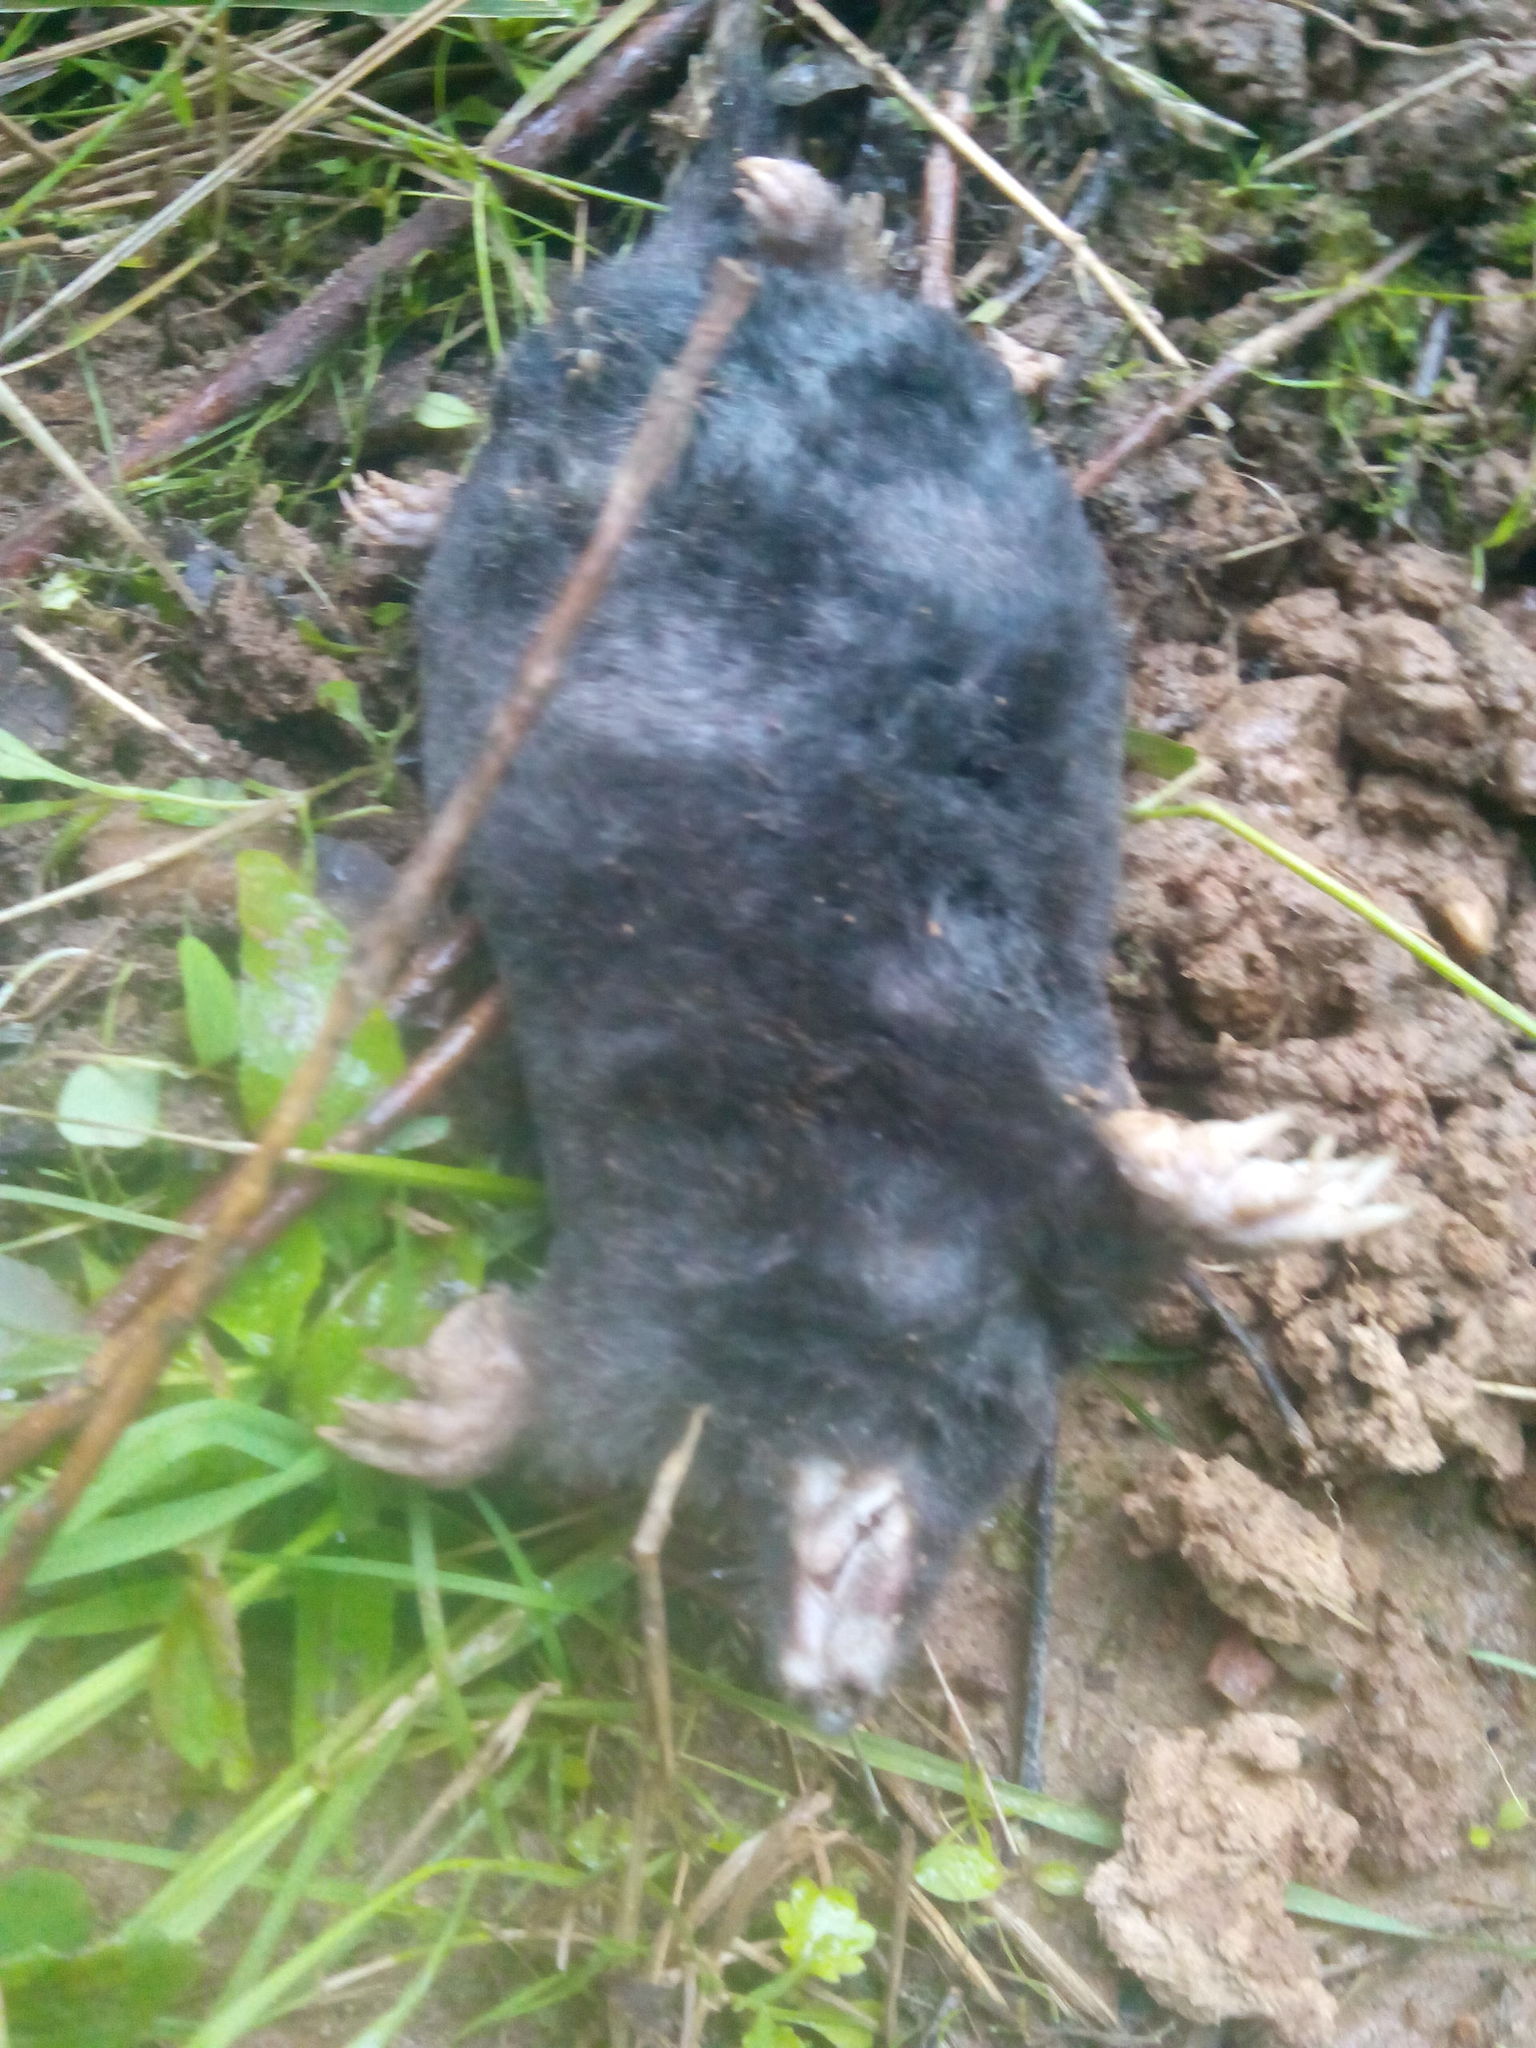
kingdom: Animalia
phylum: Chordata
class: Mammalia
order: Soricomorpha
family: Talpidae
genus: Talpa
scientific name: Talpa europaea
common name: European mole
